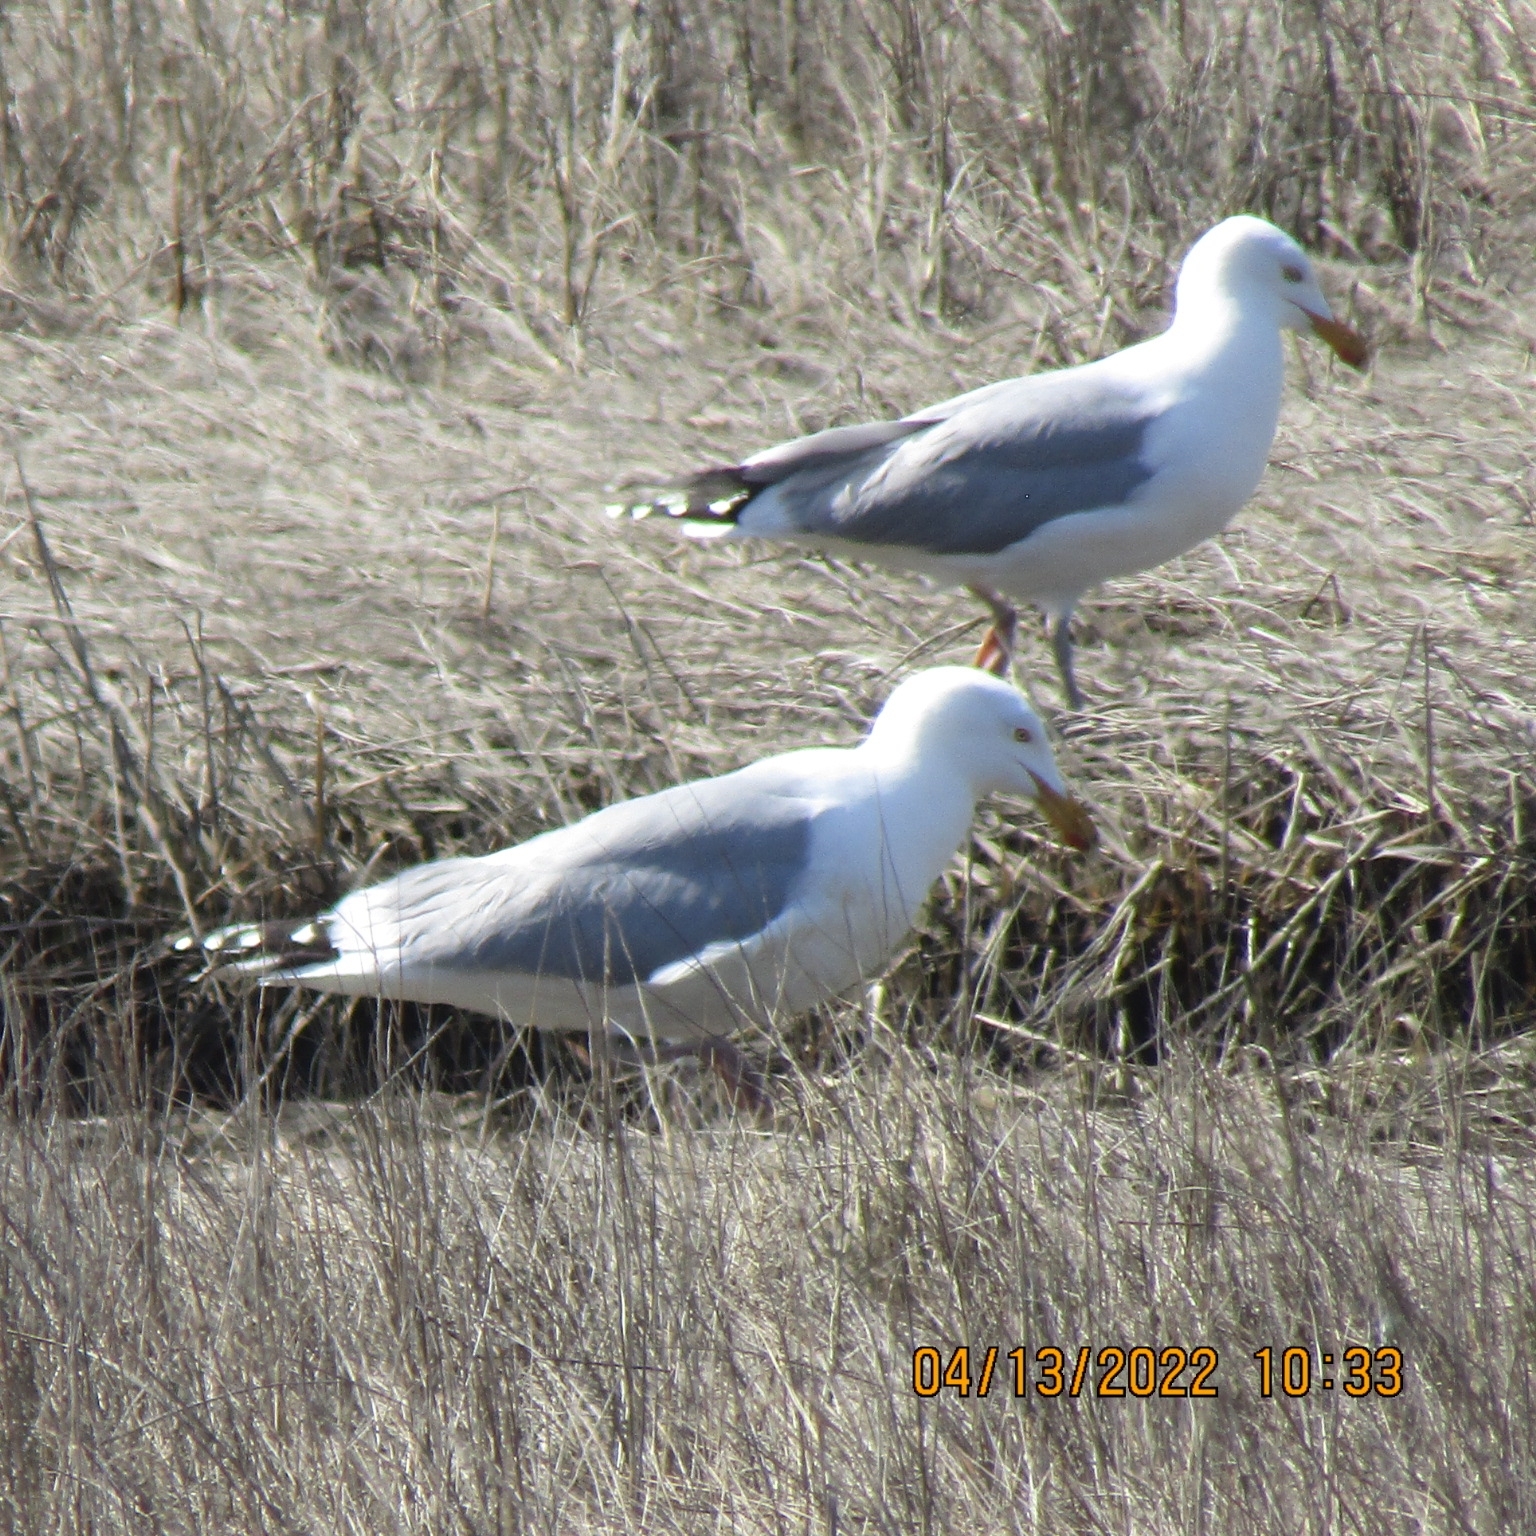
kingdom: Animalia
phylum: Chordata
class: Aves
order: Charadriiformes
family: Laridae
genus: Larus
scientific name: Larus argentatus
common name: Herring gull
